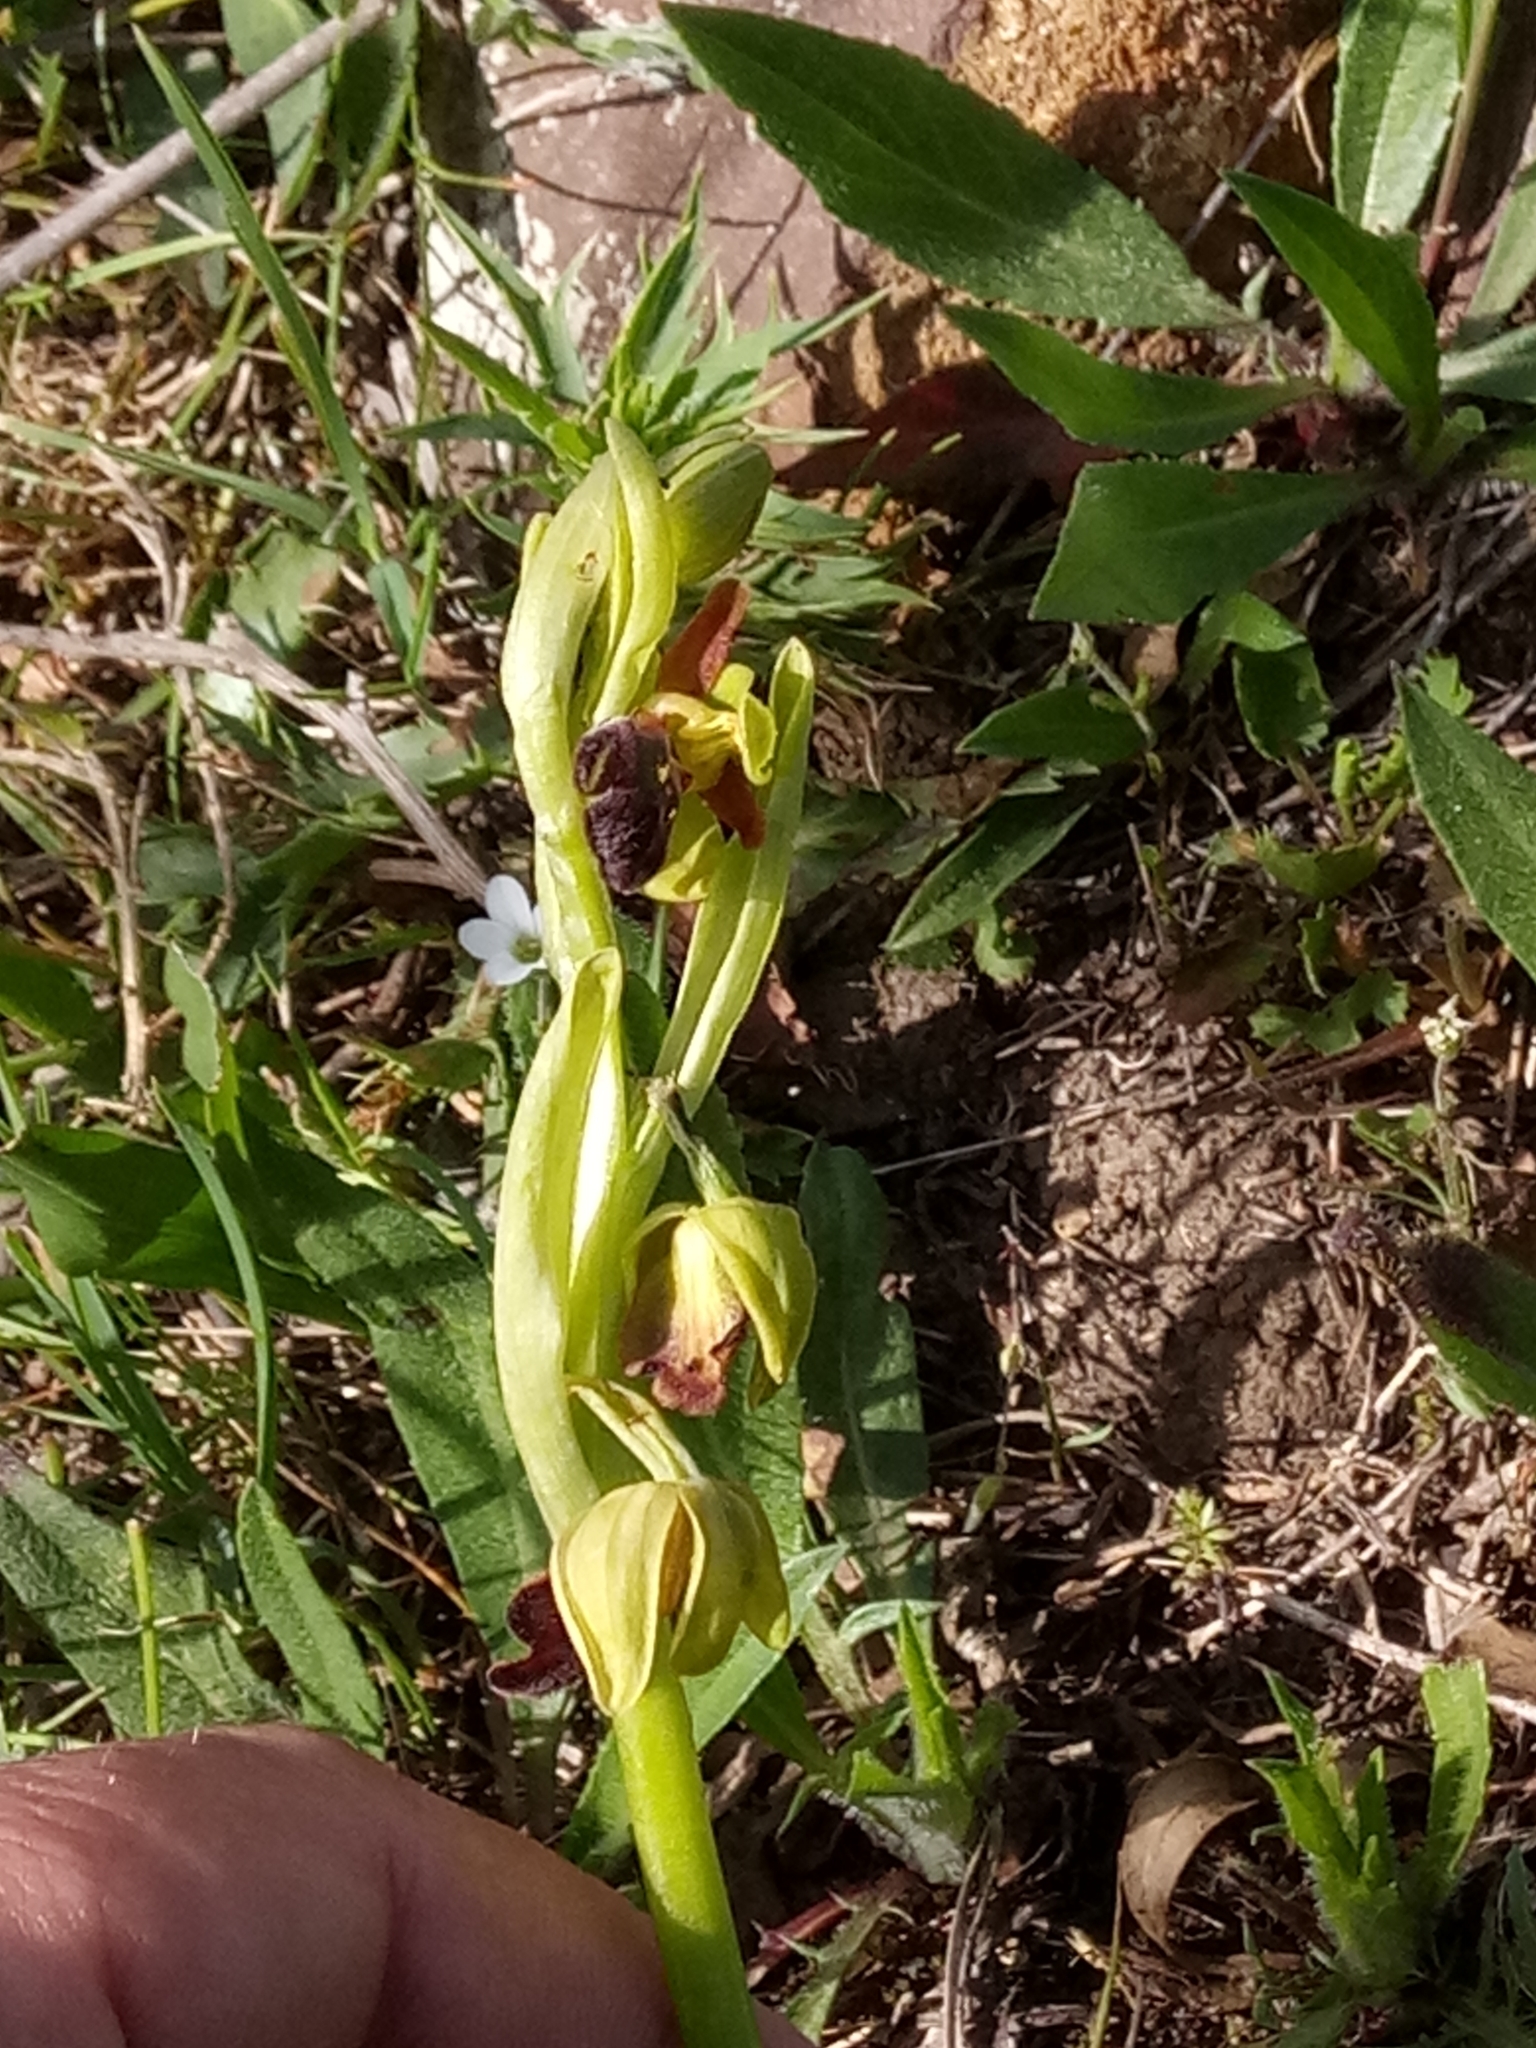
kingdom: Plantae
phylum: Tracheophyta
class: Liliopsida
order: Asparagales
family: Orchidaceae
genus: Ophrys
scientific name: Ophrys fusca
